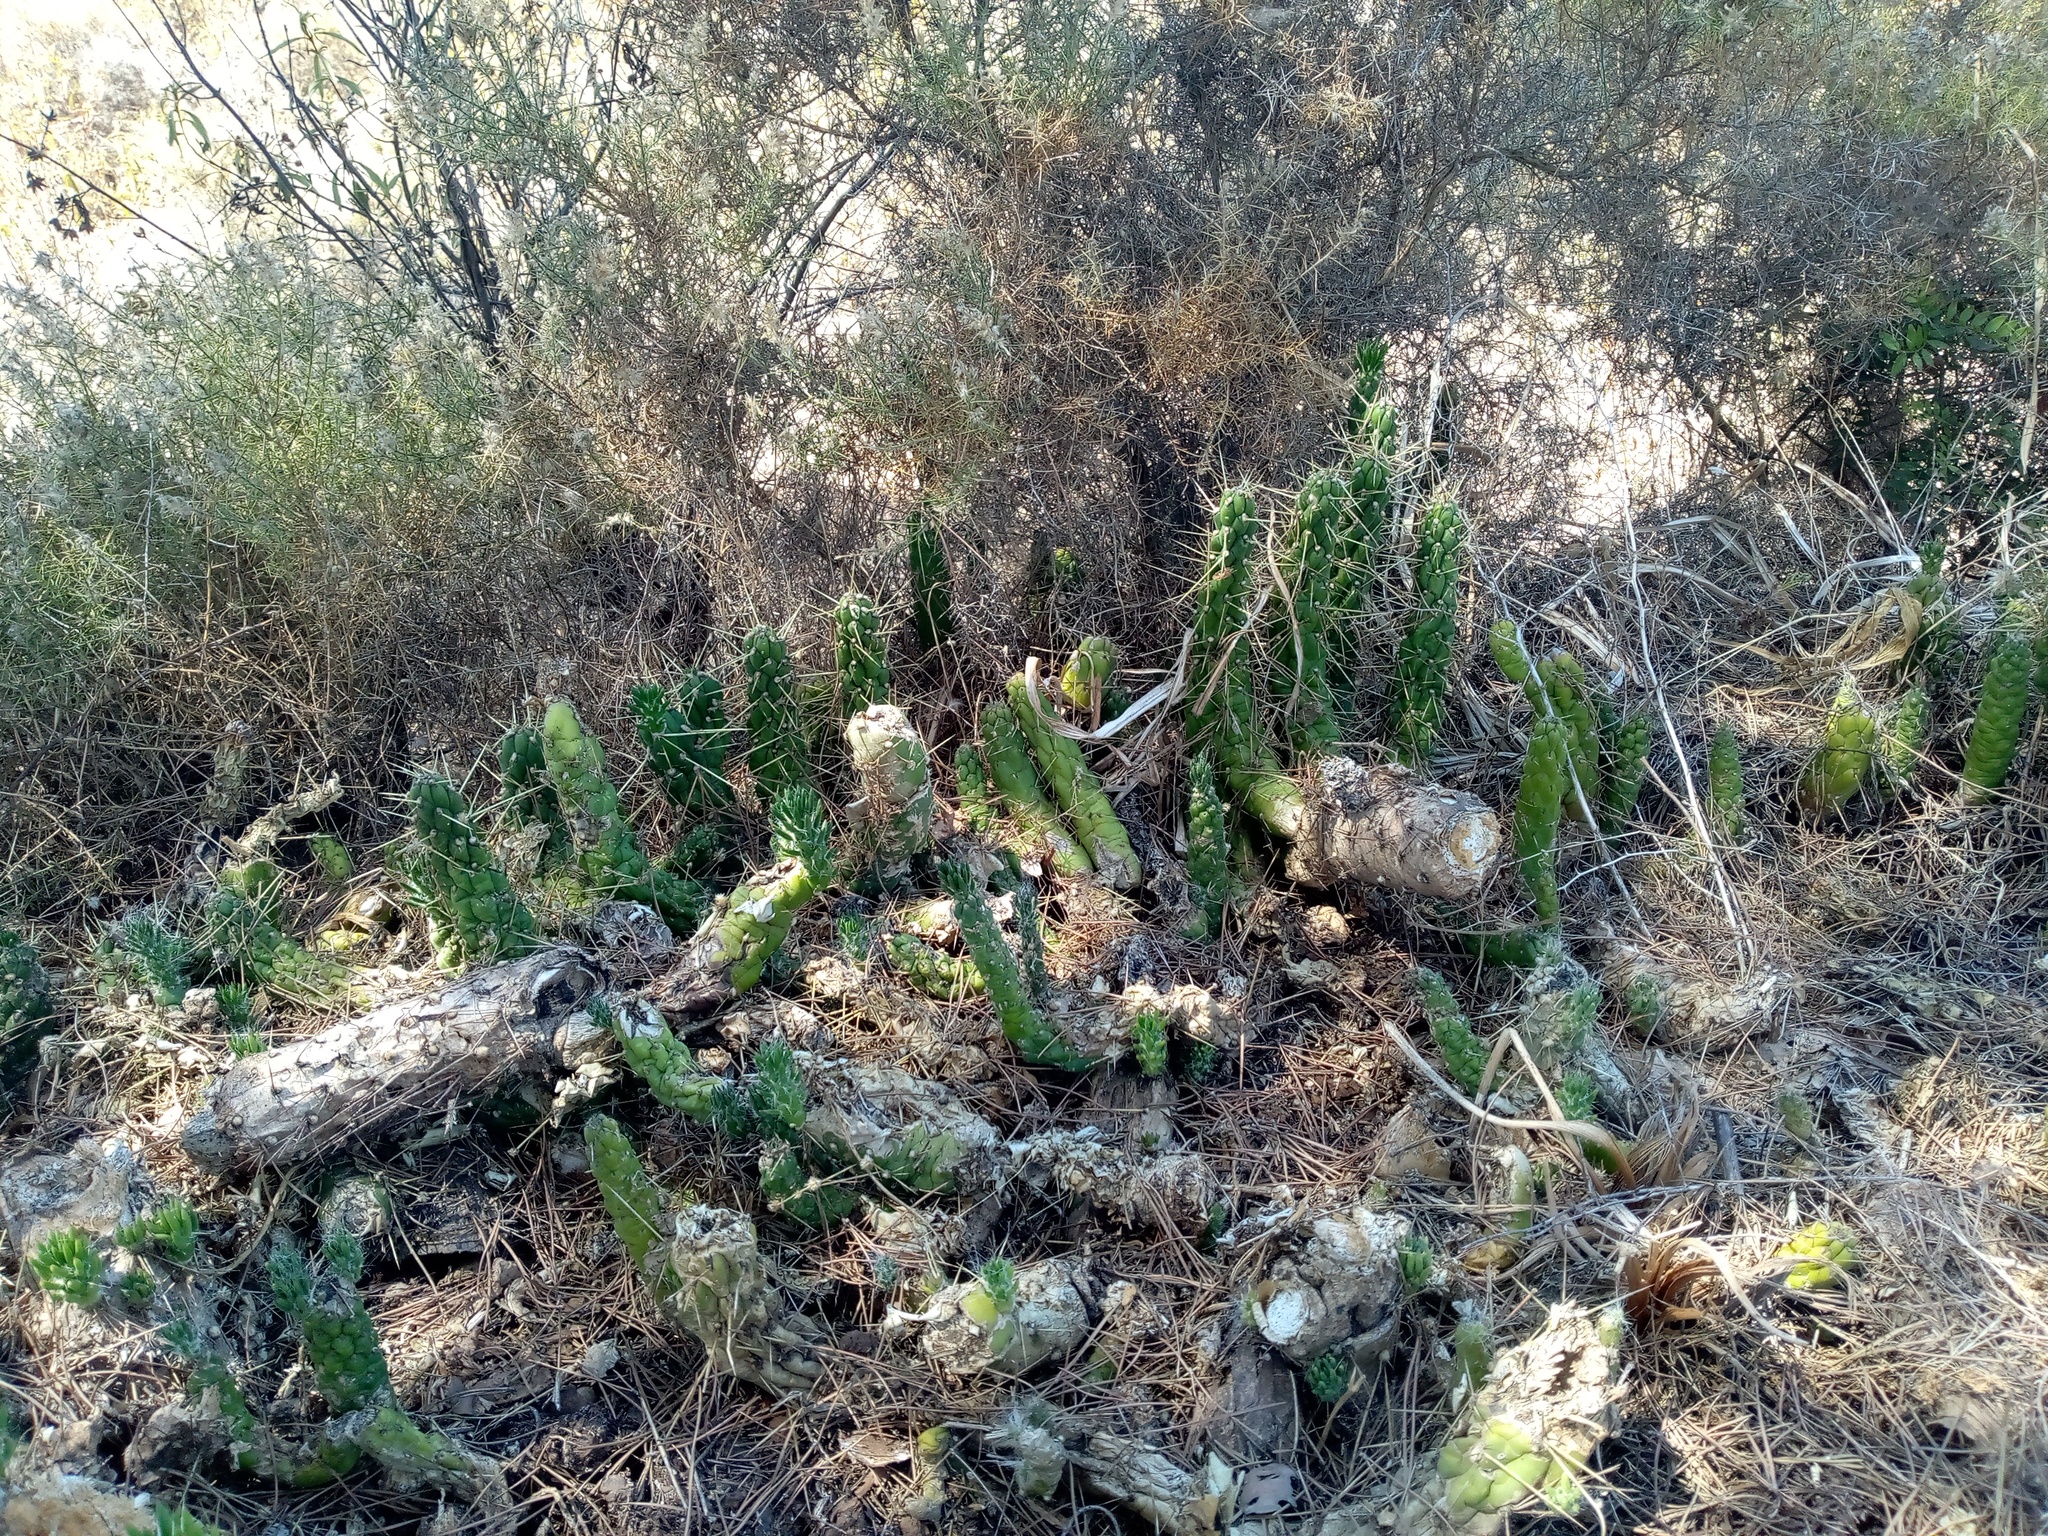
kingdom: Plantae
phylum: Tracheophyta
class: Magnoliopsida
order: Caryophyllales
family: Cactaceae
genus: Austrocylindropuntia
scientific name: Austrocylindropuntia subulata
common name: Eve's needle cactus
